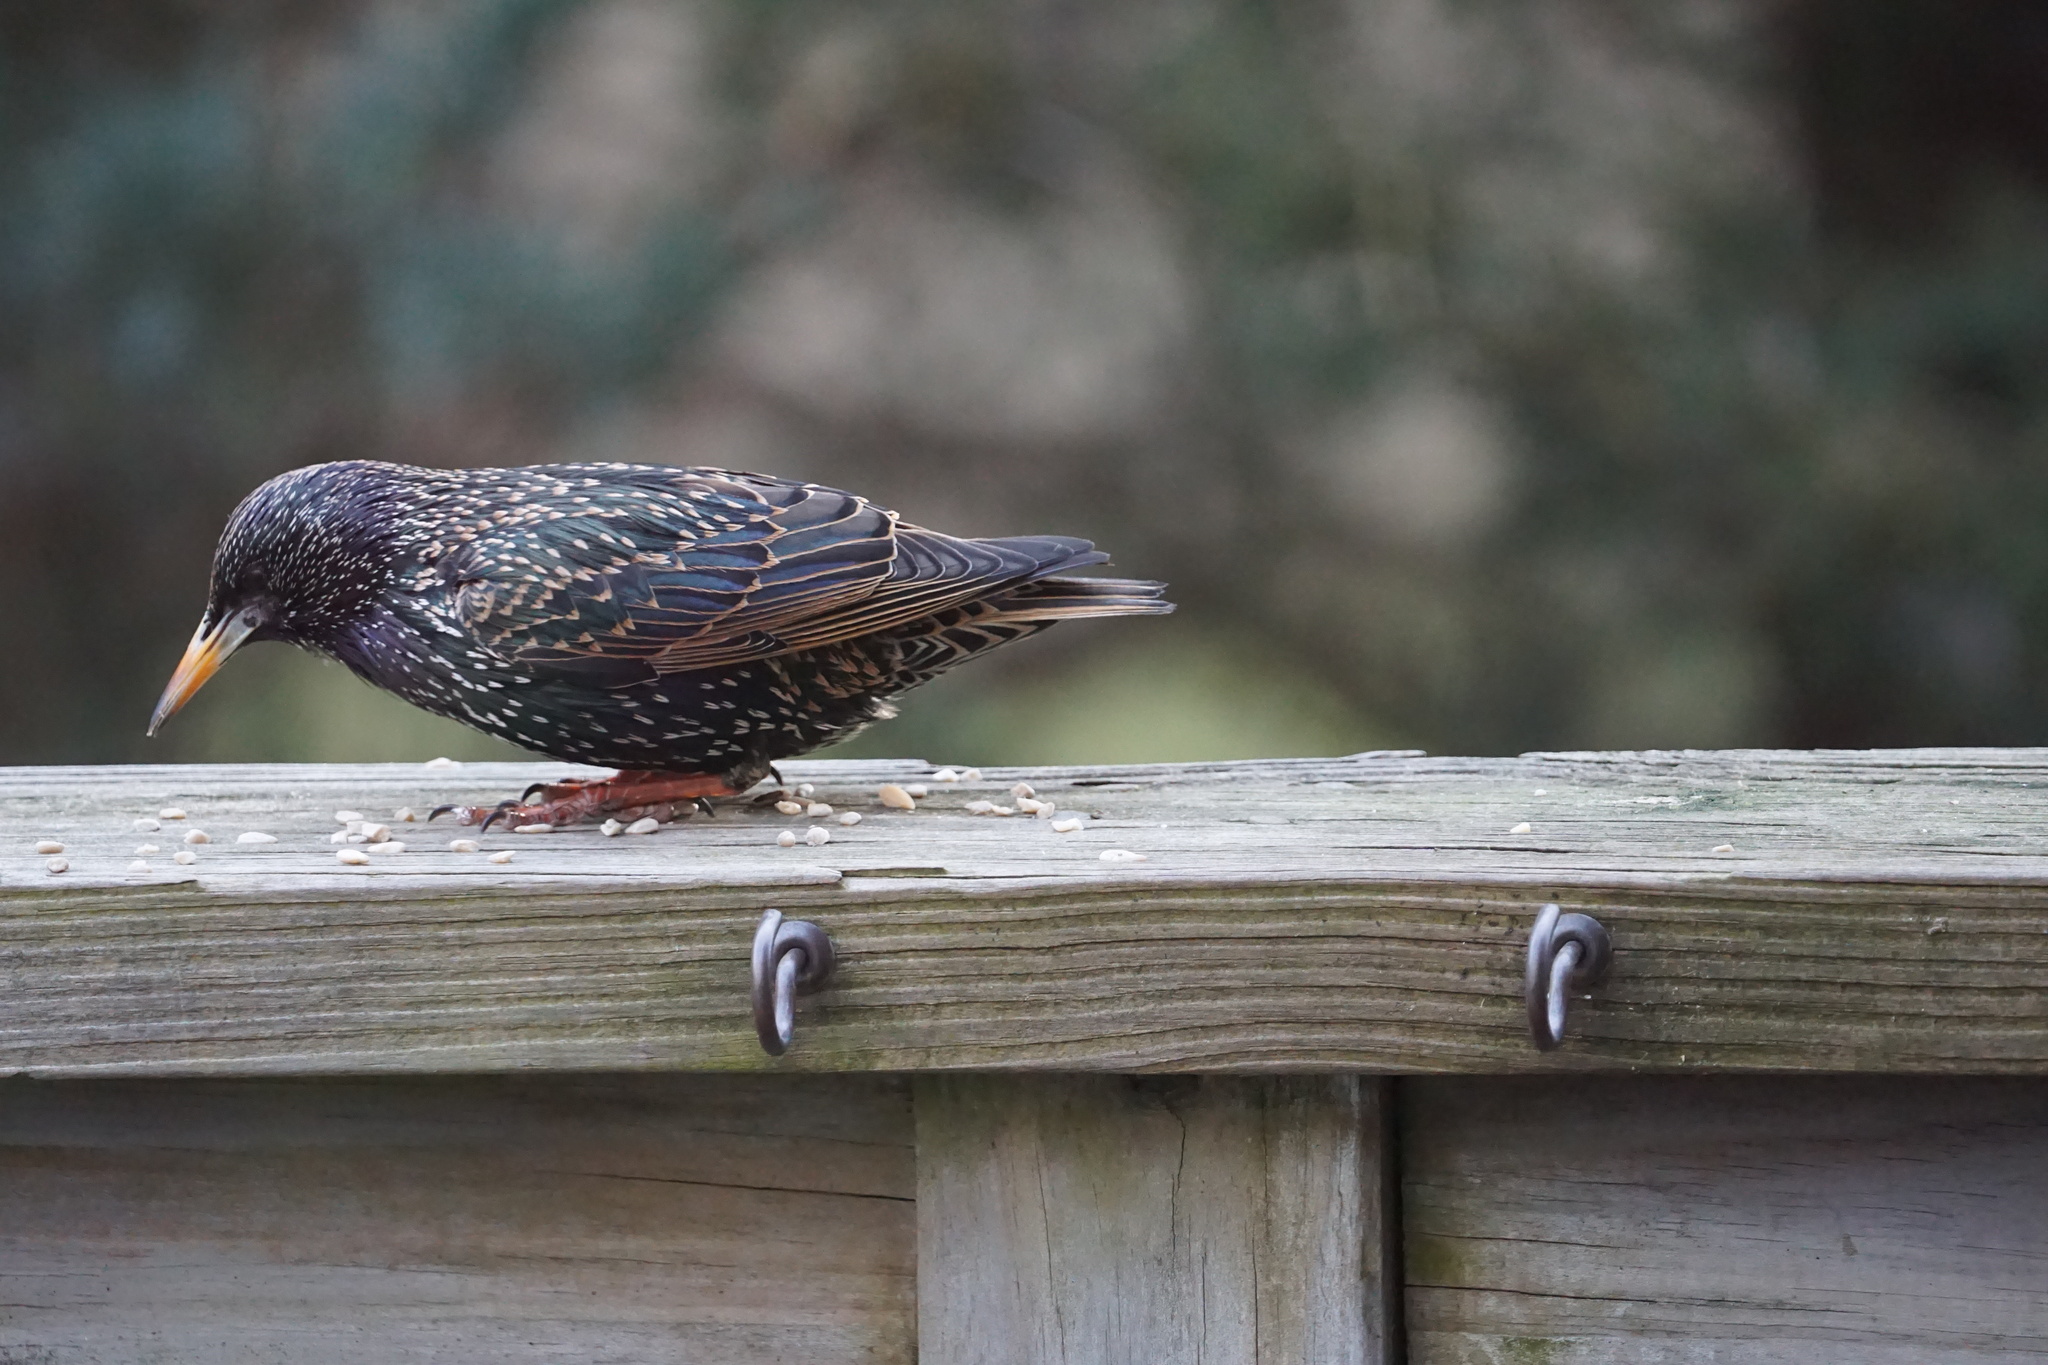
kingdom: Animalia
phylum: Chordata
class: Aves
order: Passeriformes
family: Sturnidae
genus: Sturnus
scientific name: Sturnus vulgaris
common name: Common starling
